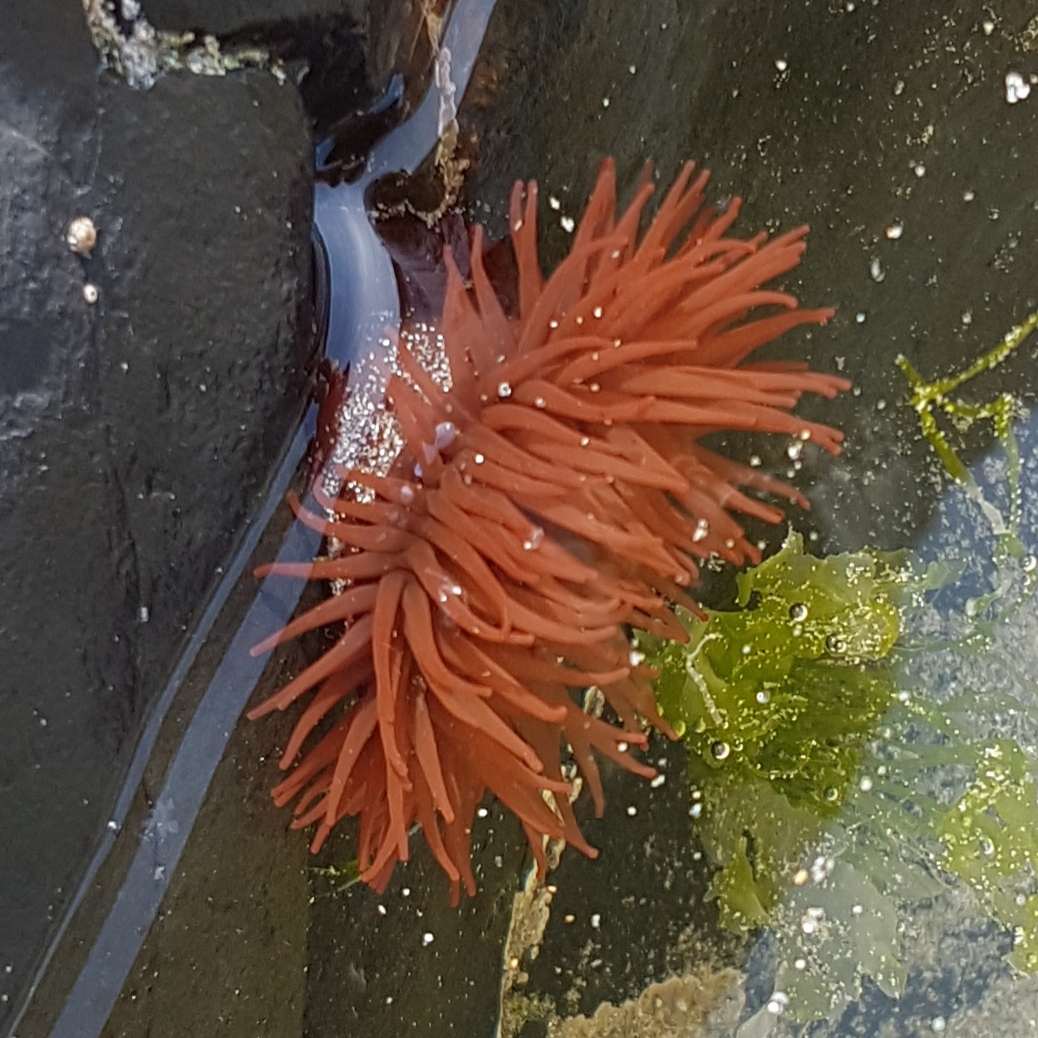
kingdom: Animalia
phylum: Cnidaria
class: Anthozoa
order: Actiniaria
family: Actiniidae
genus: Actinia
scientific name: Actinia equina
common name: Beadlet anemone
